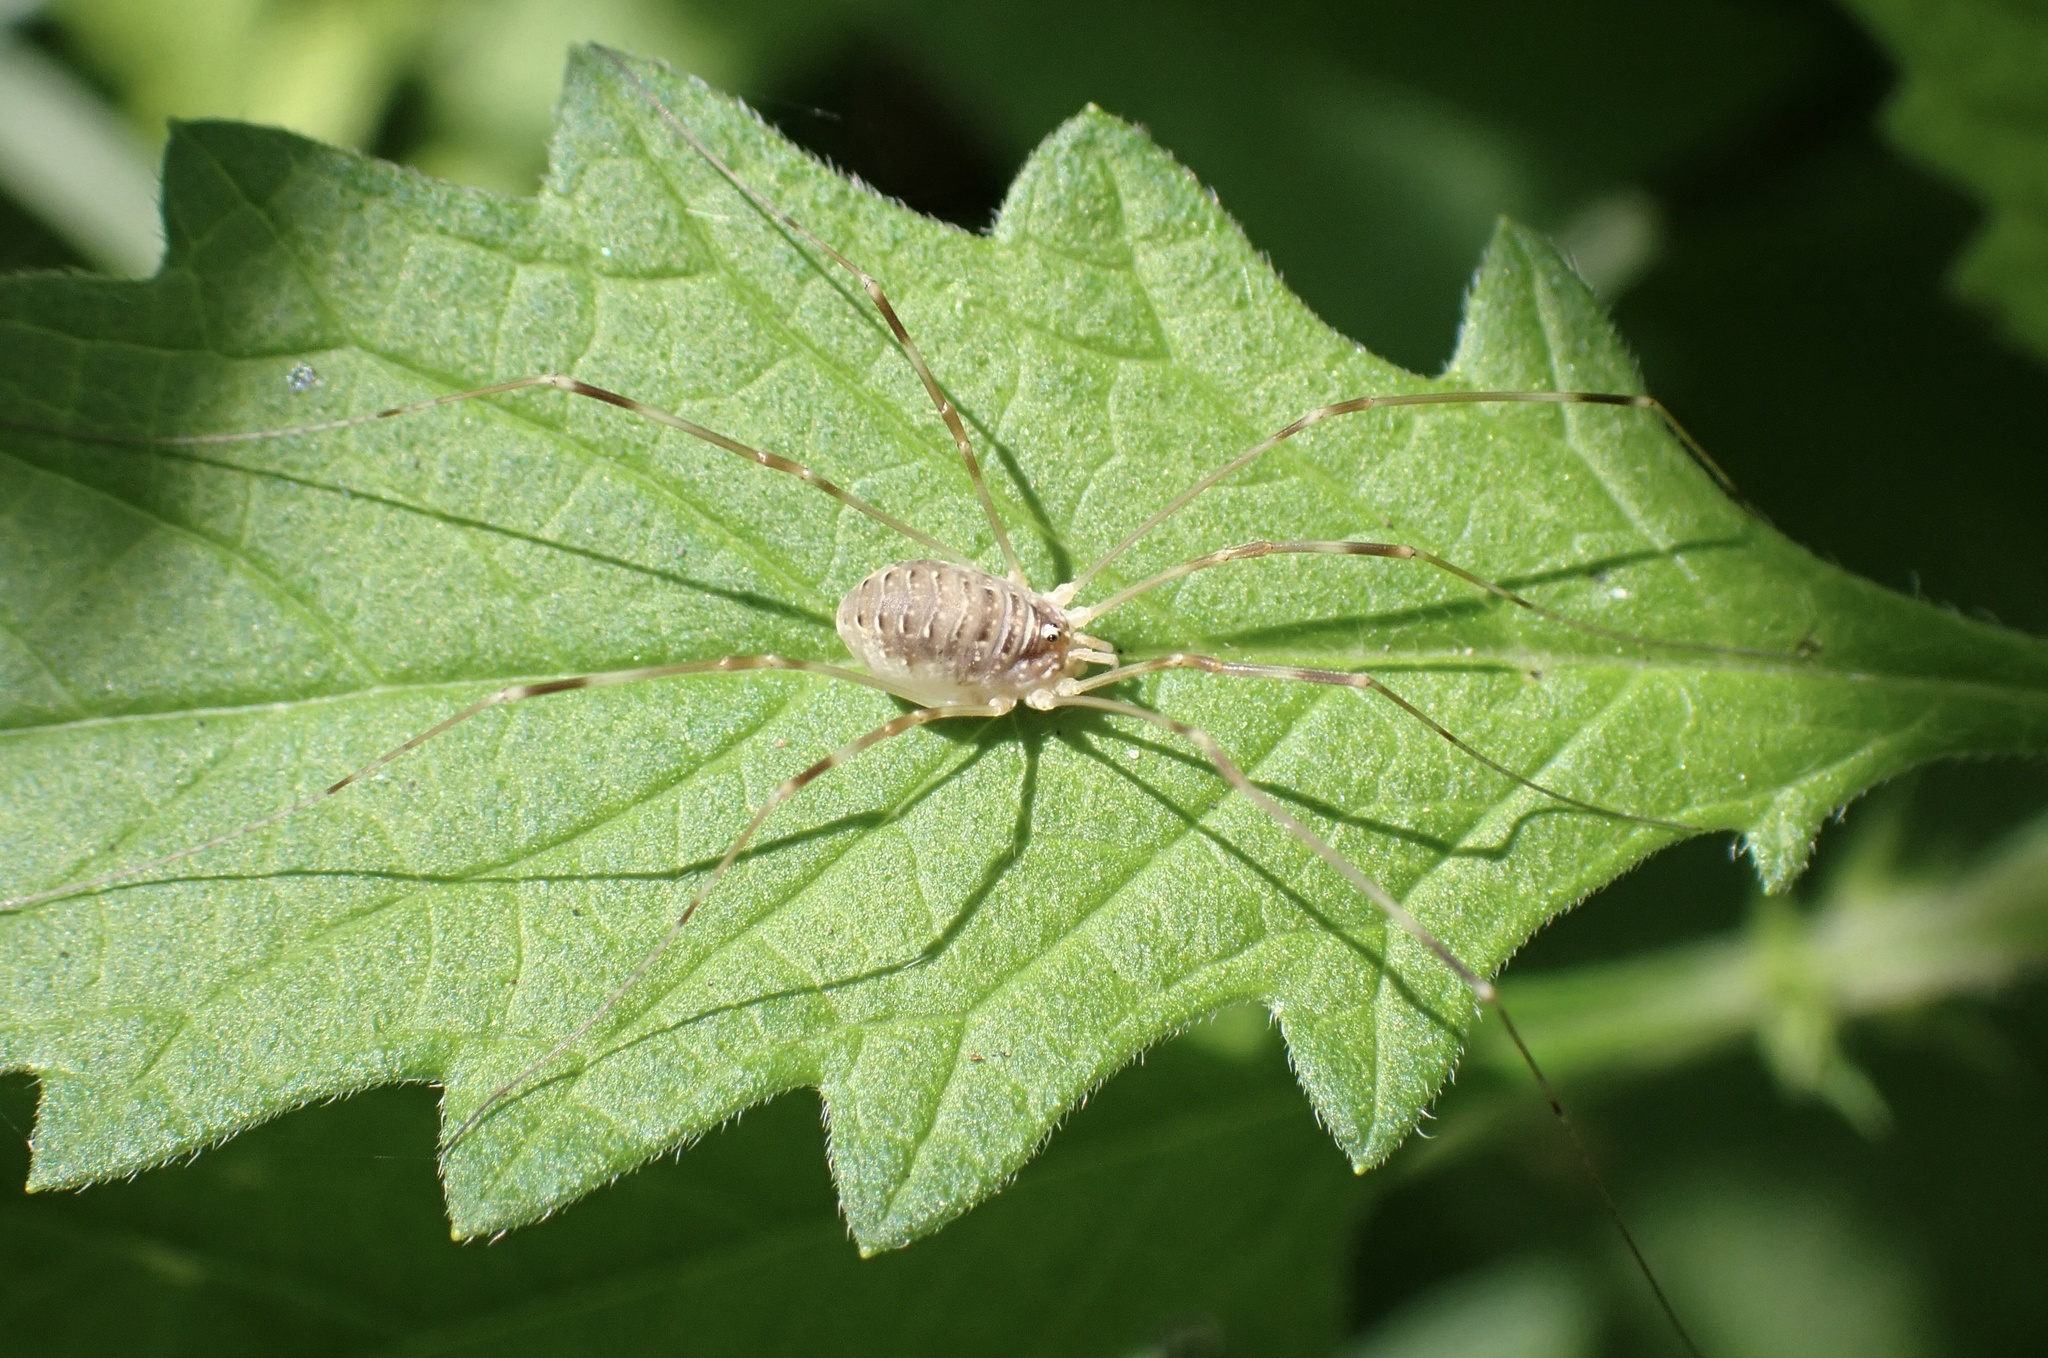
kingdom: Animalia
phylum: Arthropoda
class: Arachnida
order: Opiliones
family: Phalangiidae
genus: Opilio
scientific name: Opilio canestrinii
